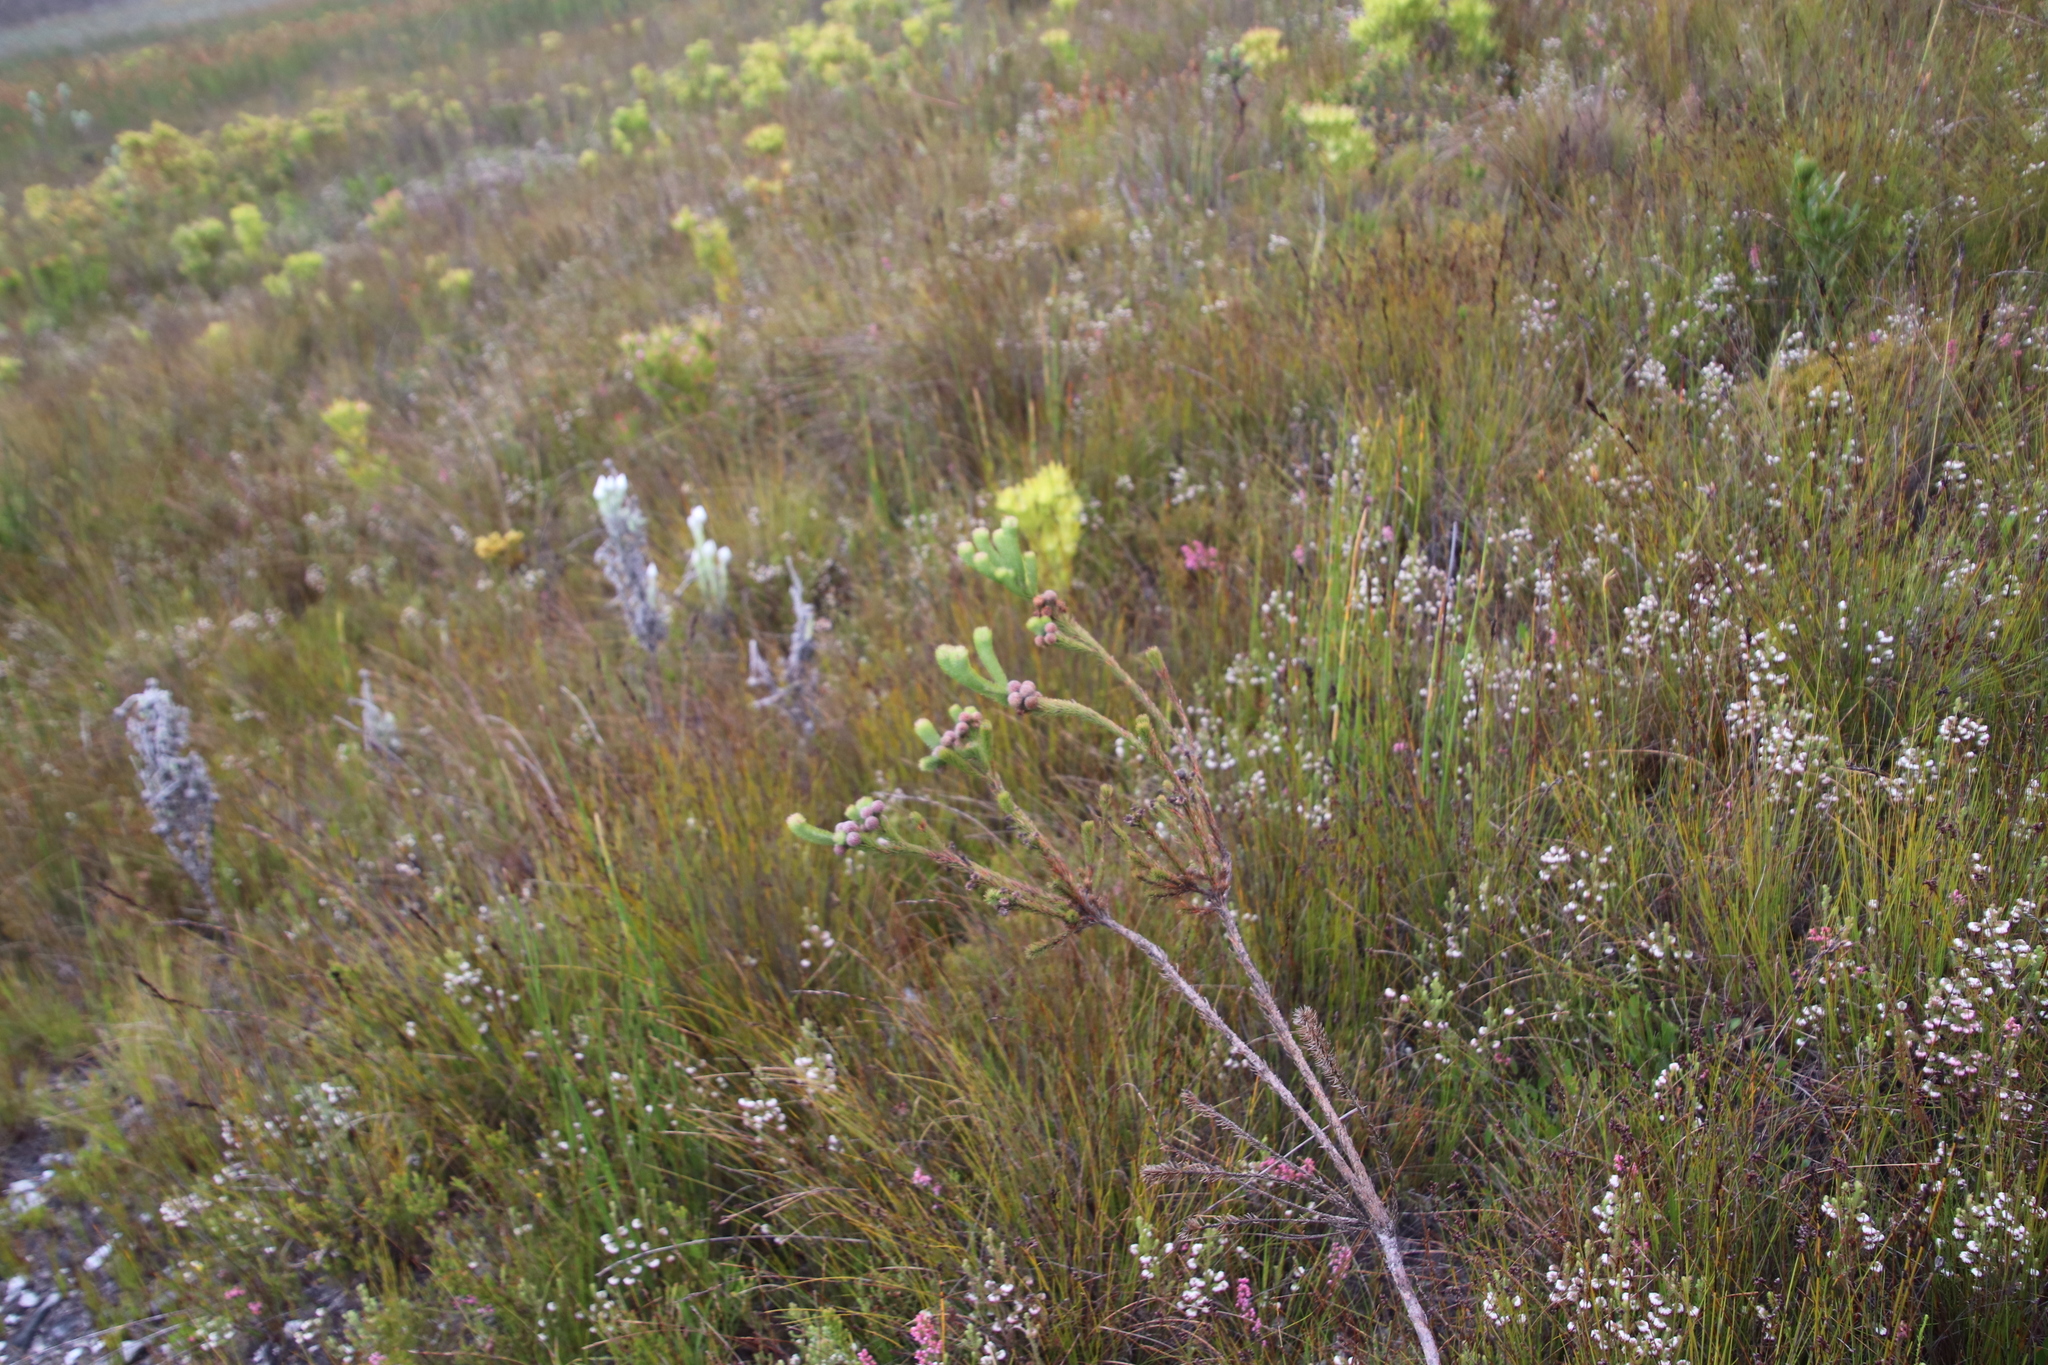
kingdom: Plantae
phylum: Tracheophyta
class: Magnoliopsida
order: Bruniales
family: Bruniaceae
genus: Berzelia
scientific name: Berzelia incurva
